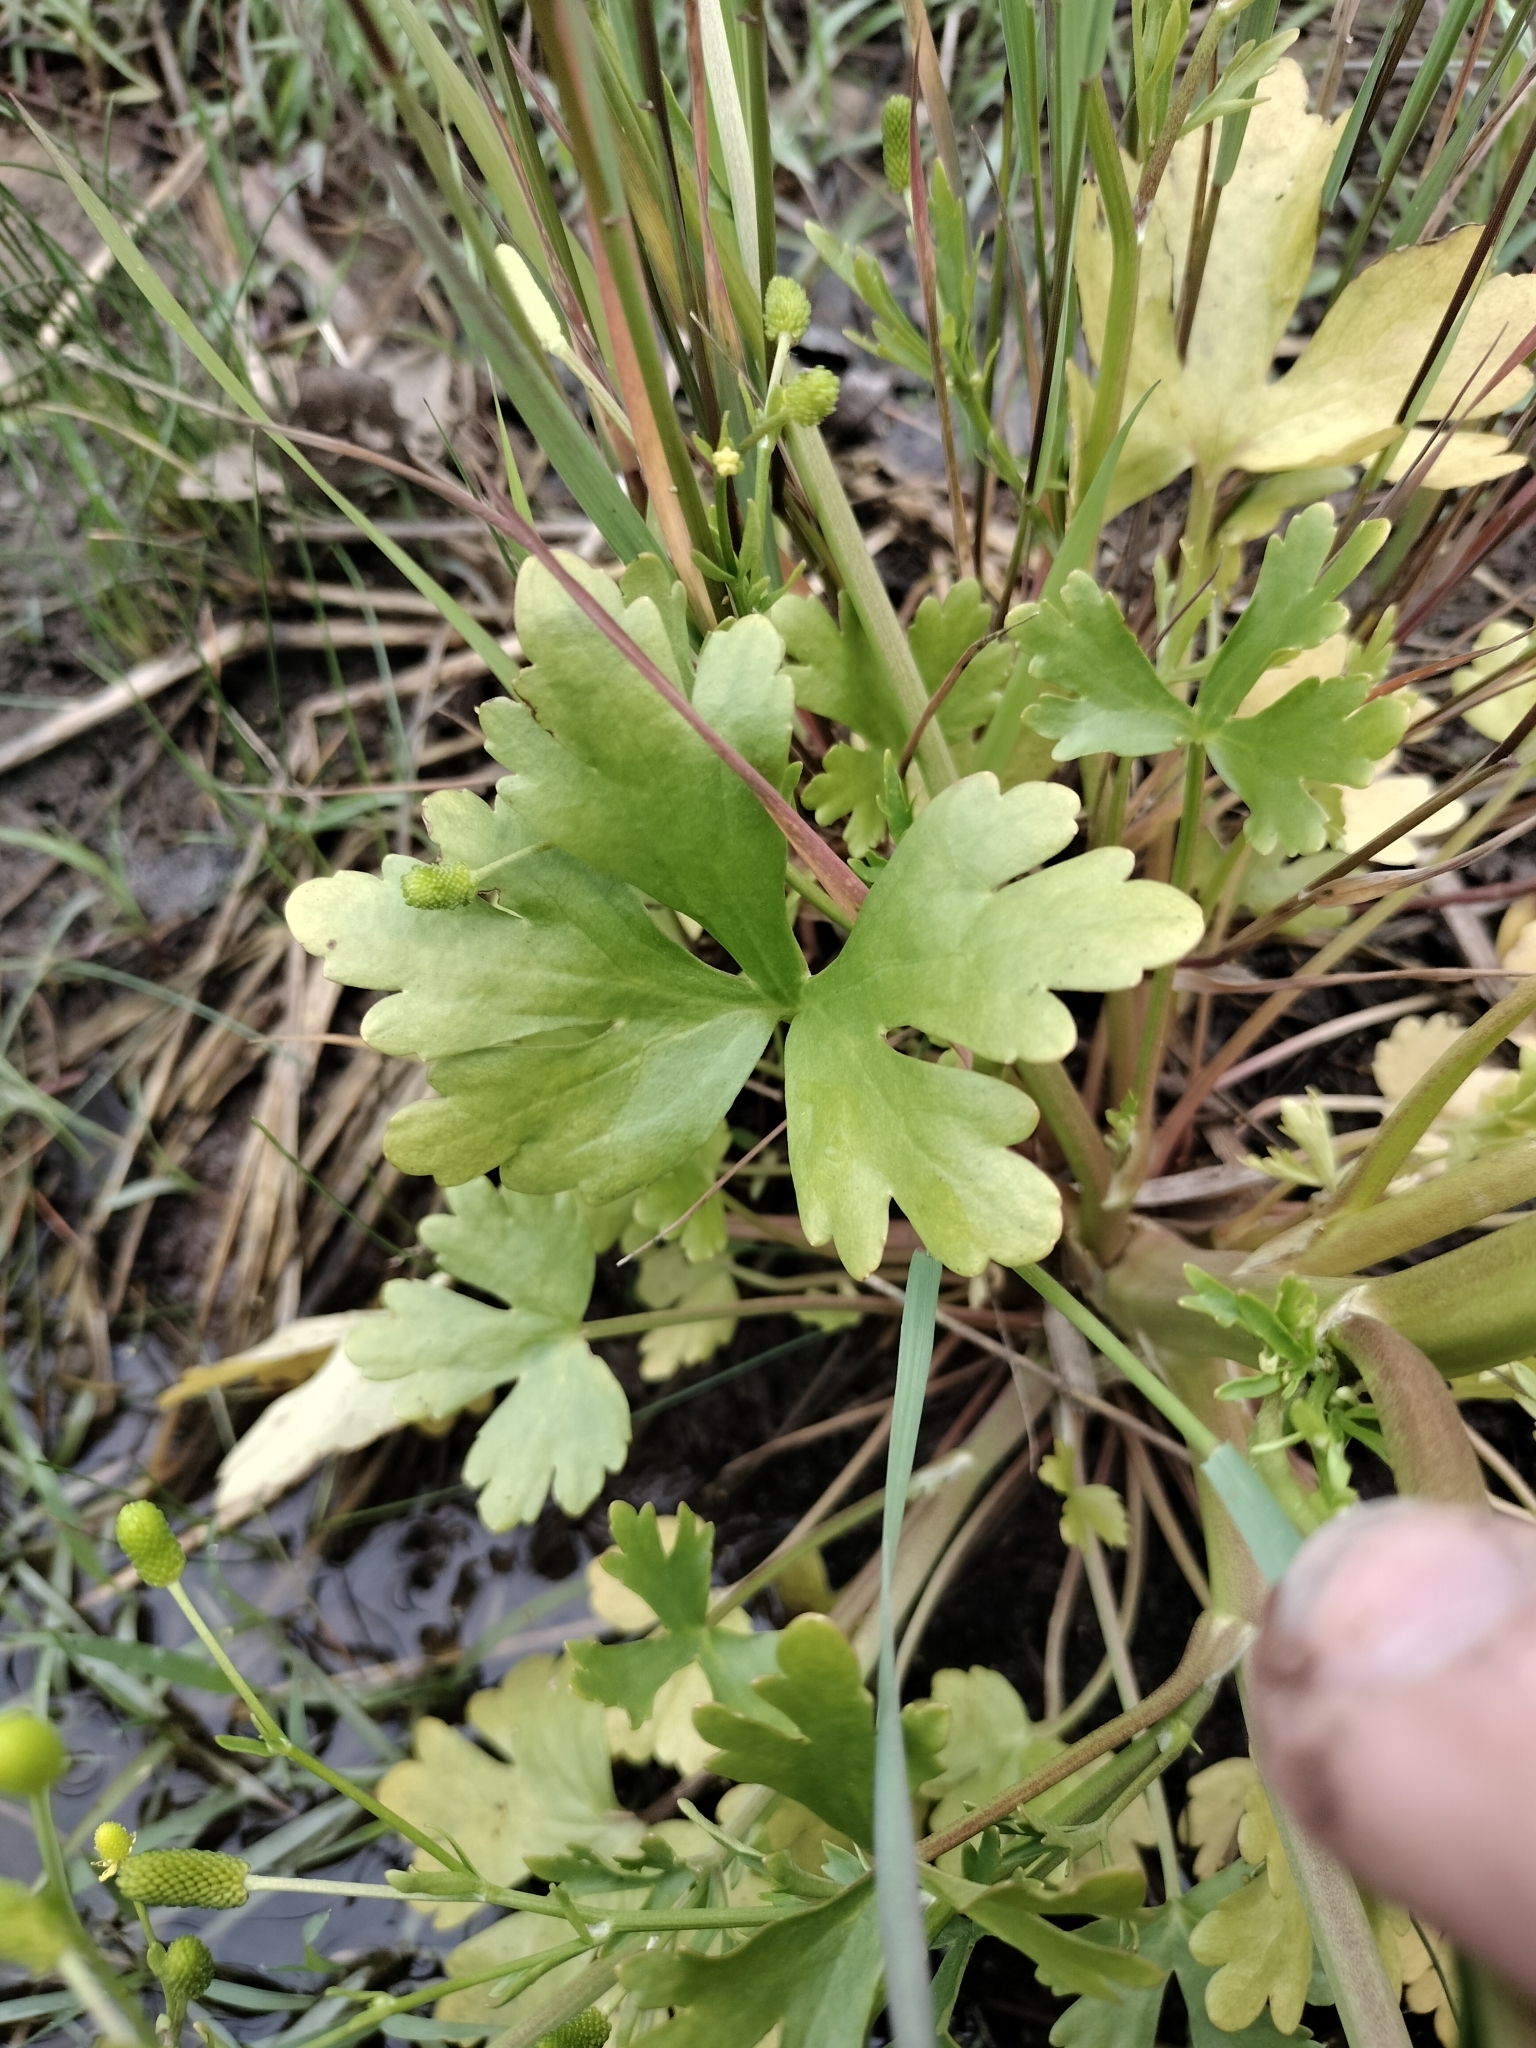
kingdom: Plantae
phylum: Tracheophyta
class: Magnoliopsida
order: Ranunculales
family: Ranunculaceae
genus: Ranunculus
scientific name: Ranunculus sceleratus
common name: Celery-leaved buttercup
